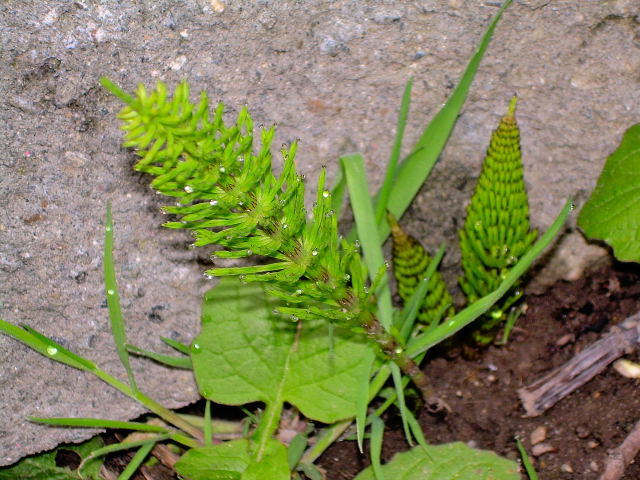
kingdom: Plantae
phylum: Tracheophyta
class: Polypodiopsida
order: Equisetales
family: Equisetaceae
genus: Equisetum
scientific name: Equisetum arvense
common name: Field horsetail
